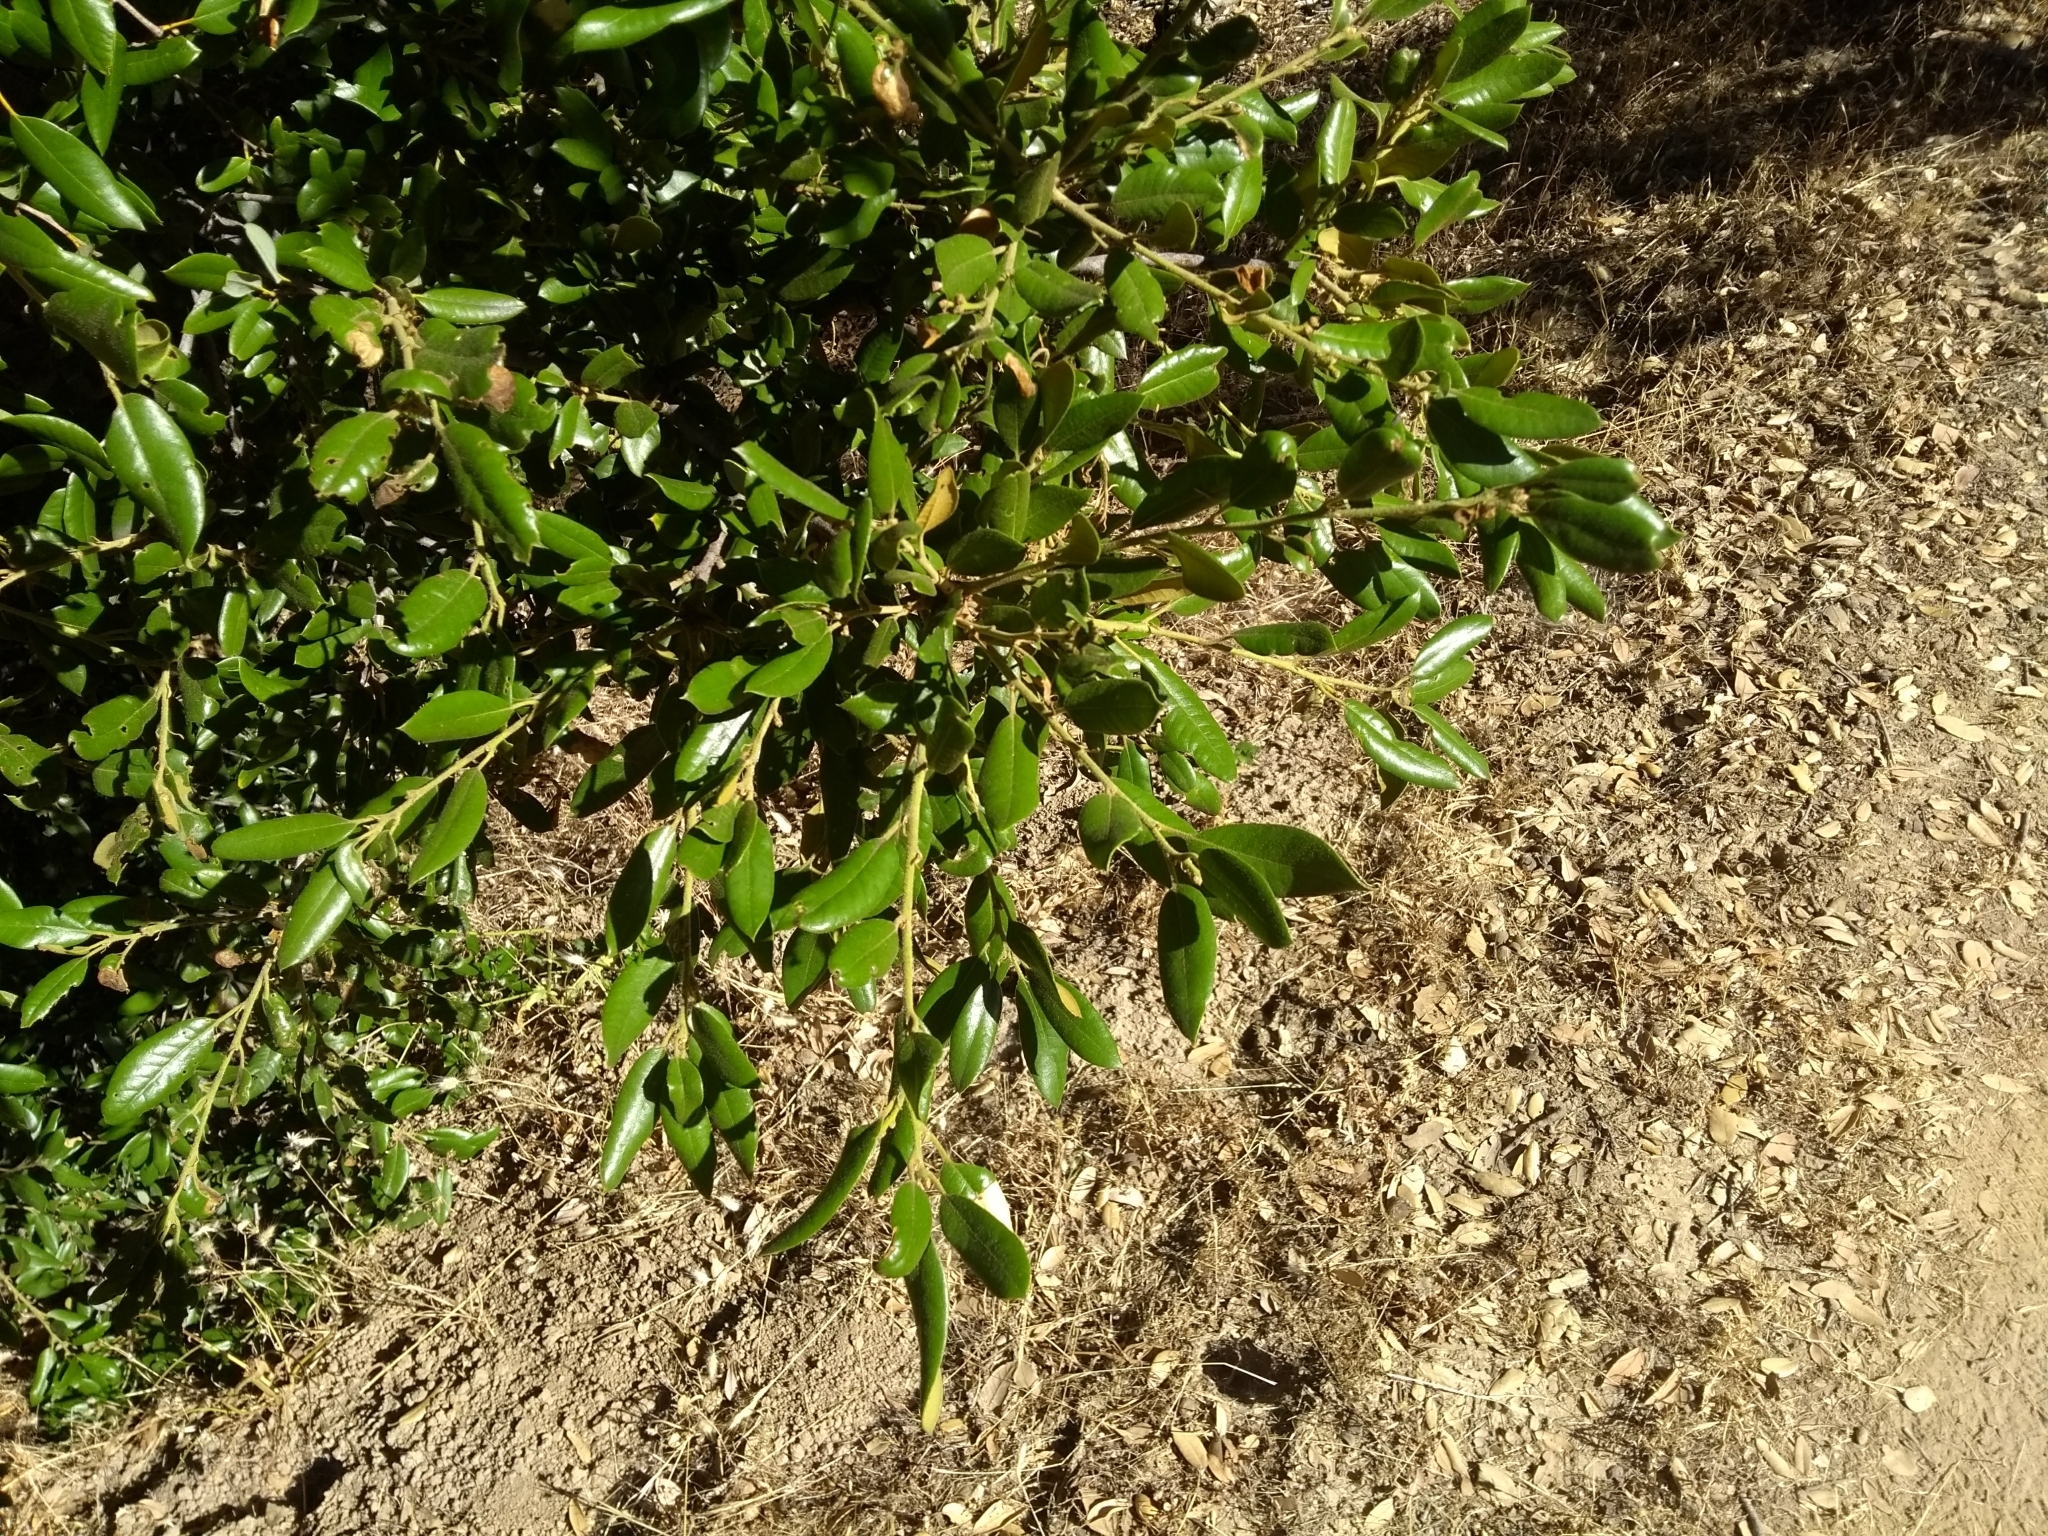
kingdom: Plantae
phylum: Tracheophyta
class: Magnoliopsida
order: Fagales
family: Fagaceae
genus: Quercus
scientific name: Quercus chrysolepis
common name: Canyon live oak
